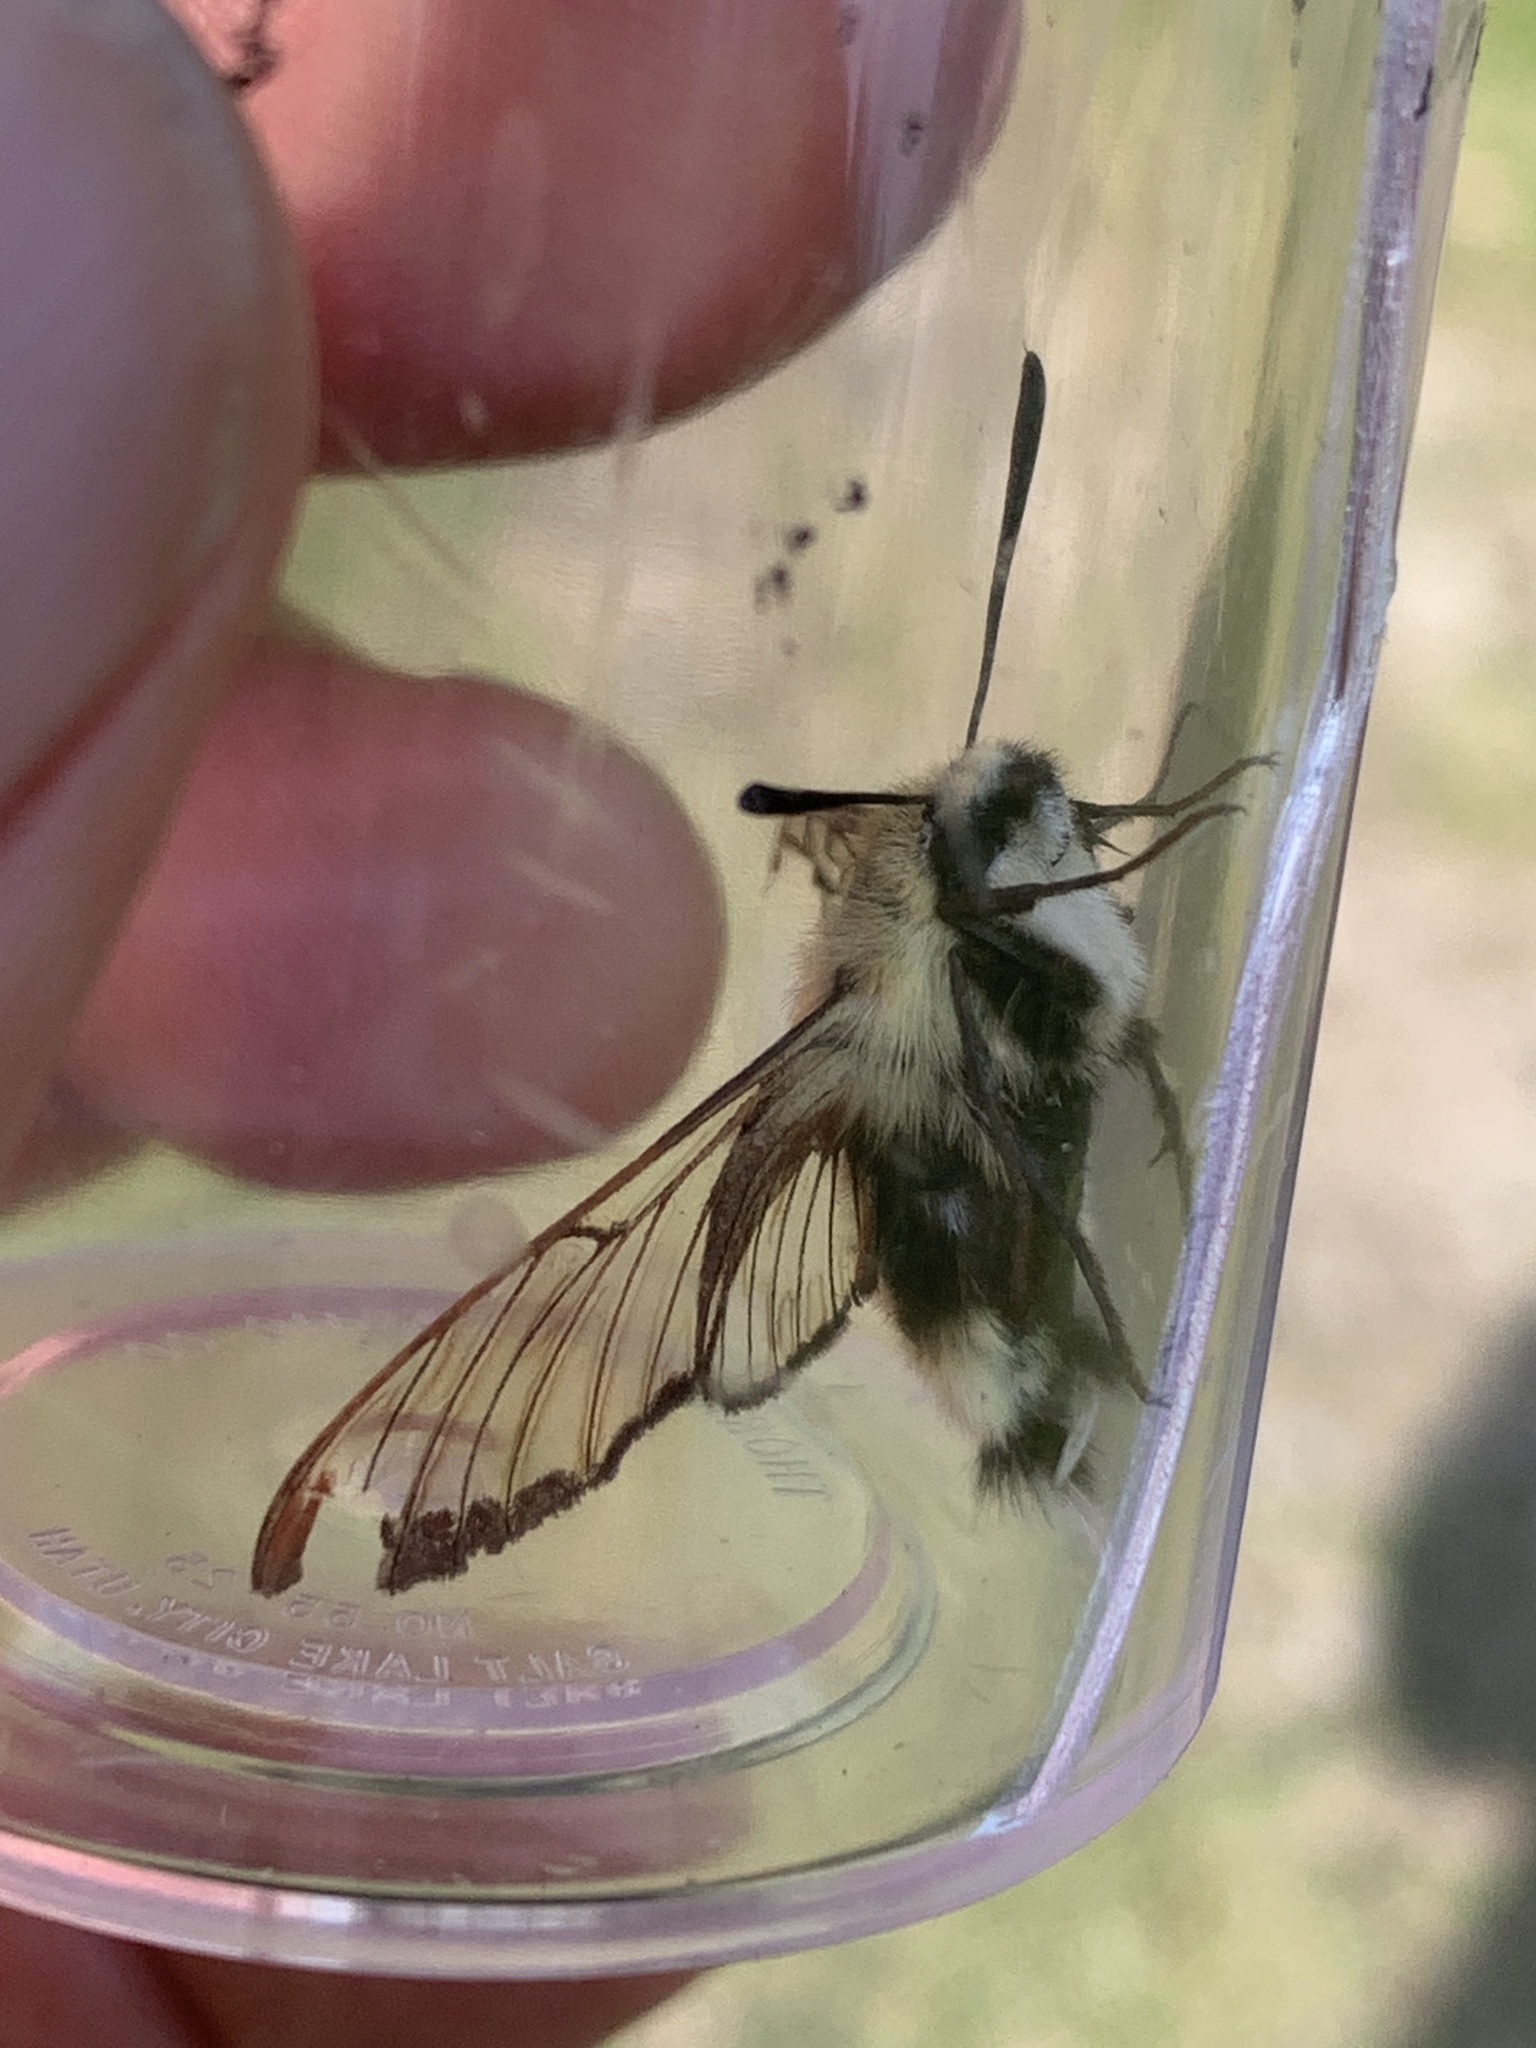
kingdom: Animalia
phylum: Arthropoda
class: Insecta
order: Lepidoptera
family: Sphingidae
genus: Hemaris
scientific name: Hemaris thetis
